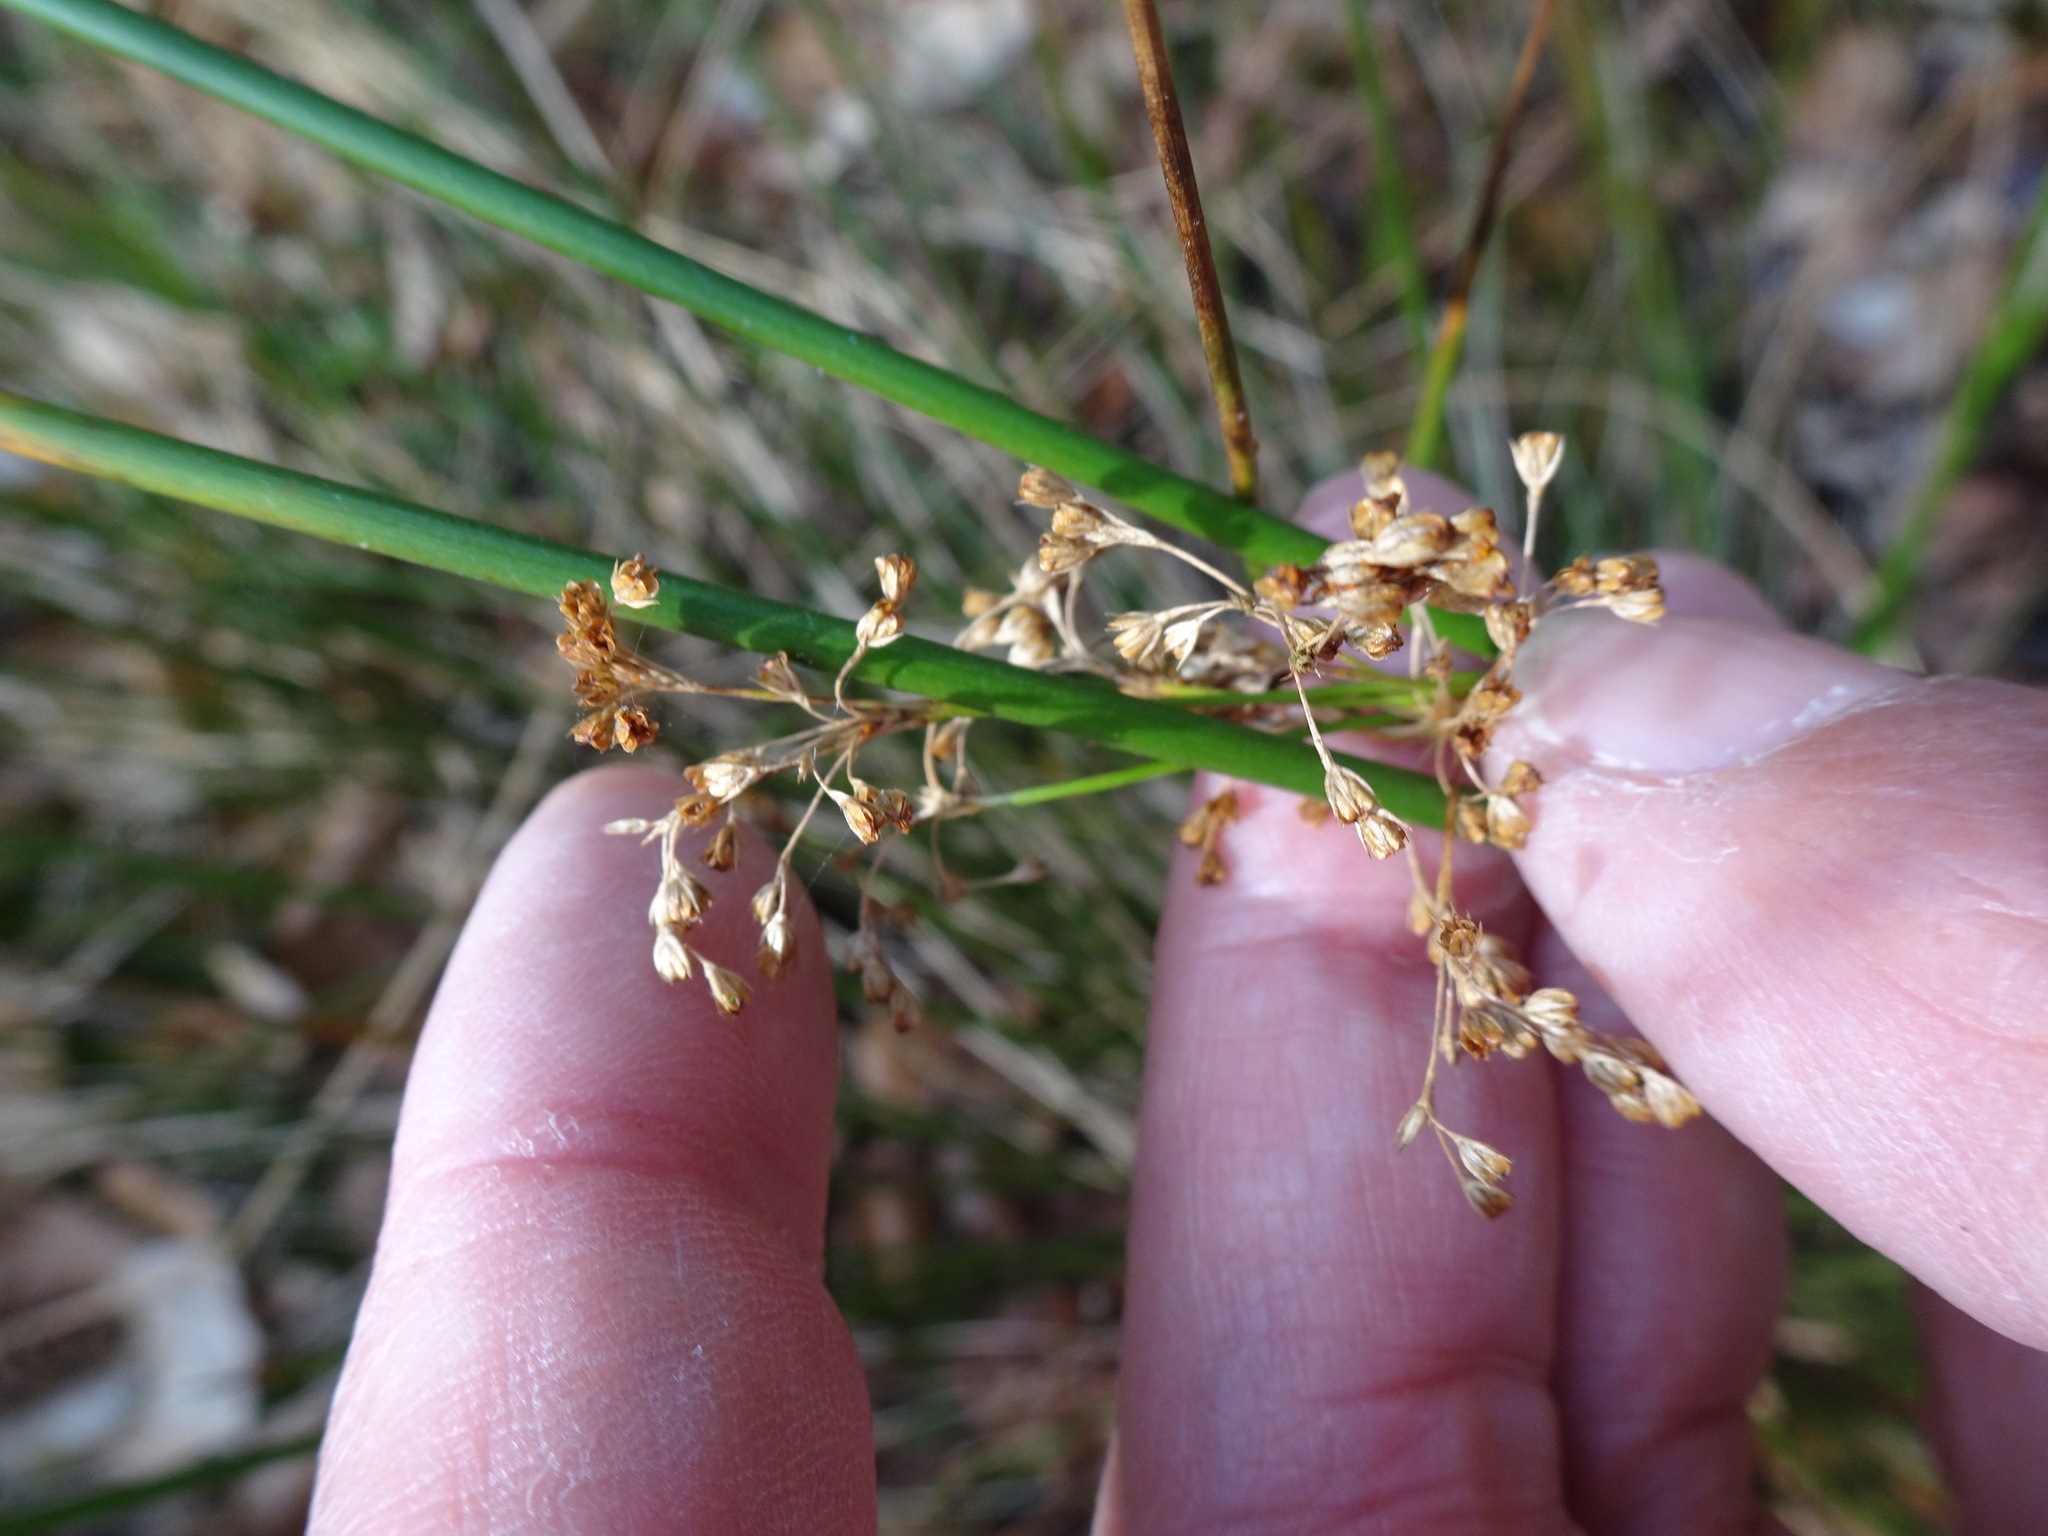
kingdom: Plantae
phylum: Tracheophyta
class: Liliopsida
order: Poales
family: Juncaceae
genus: Juncus
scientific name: Juncus effusus
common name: Soft rush
